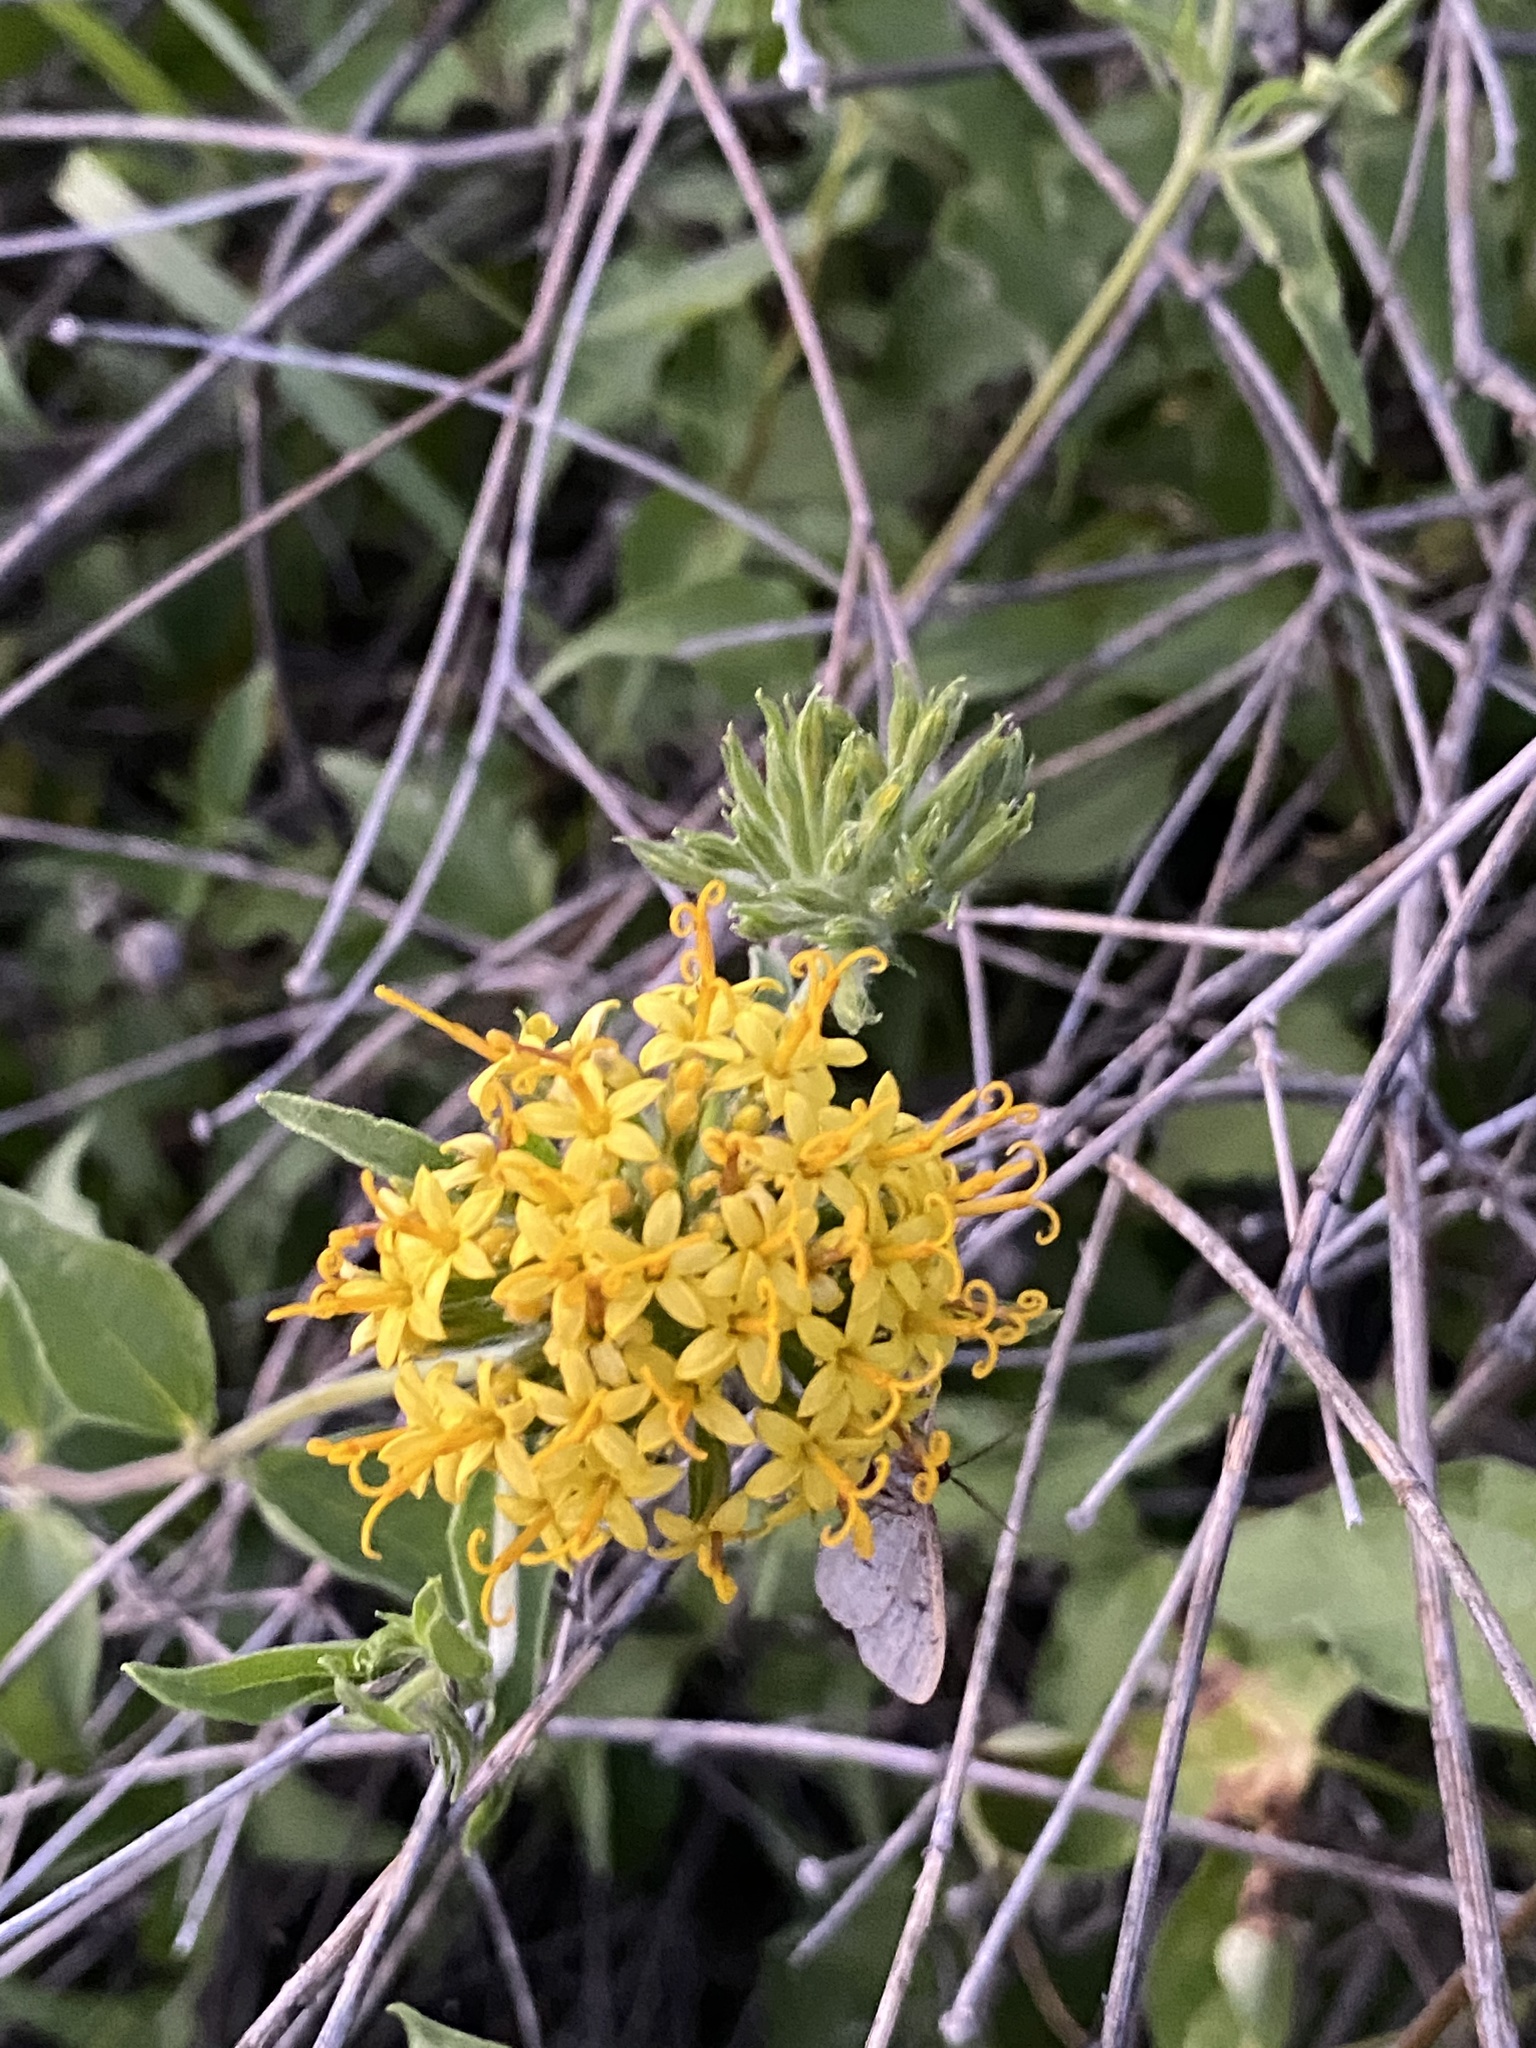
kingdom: Plantae
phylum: Tracheophyta
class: Magnoliopsida
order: Asterales
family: Asteraceae
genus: Lagascea
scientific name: Lagascea decipiens
